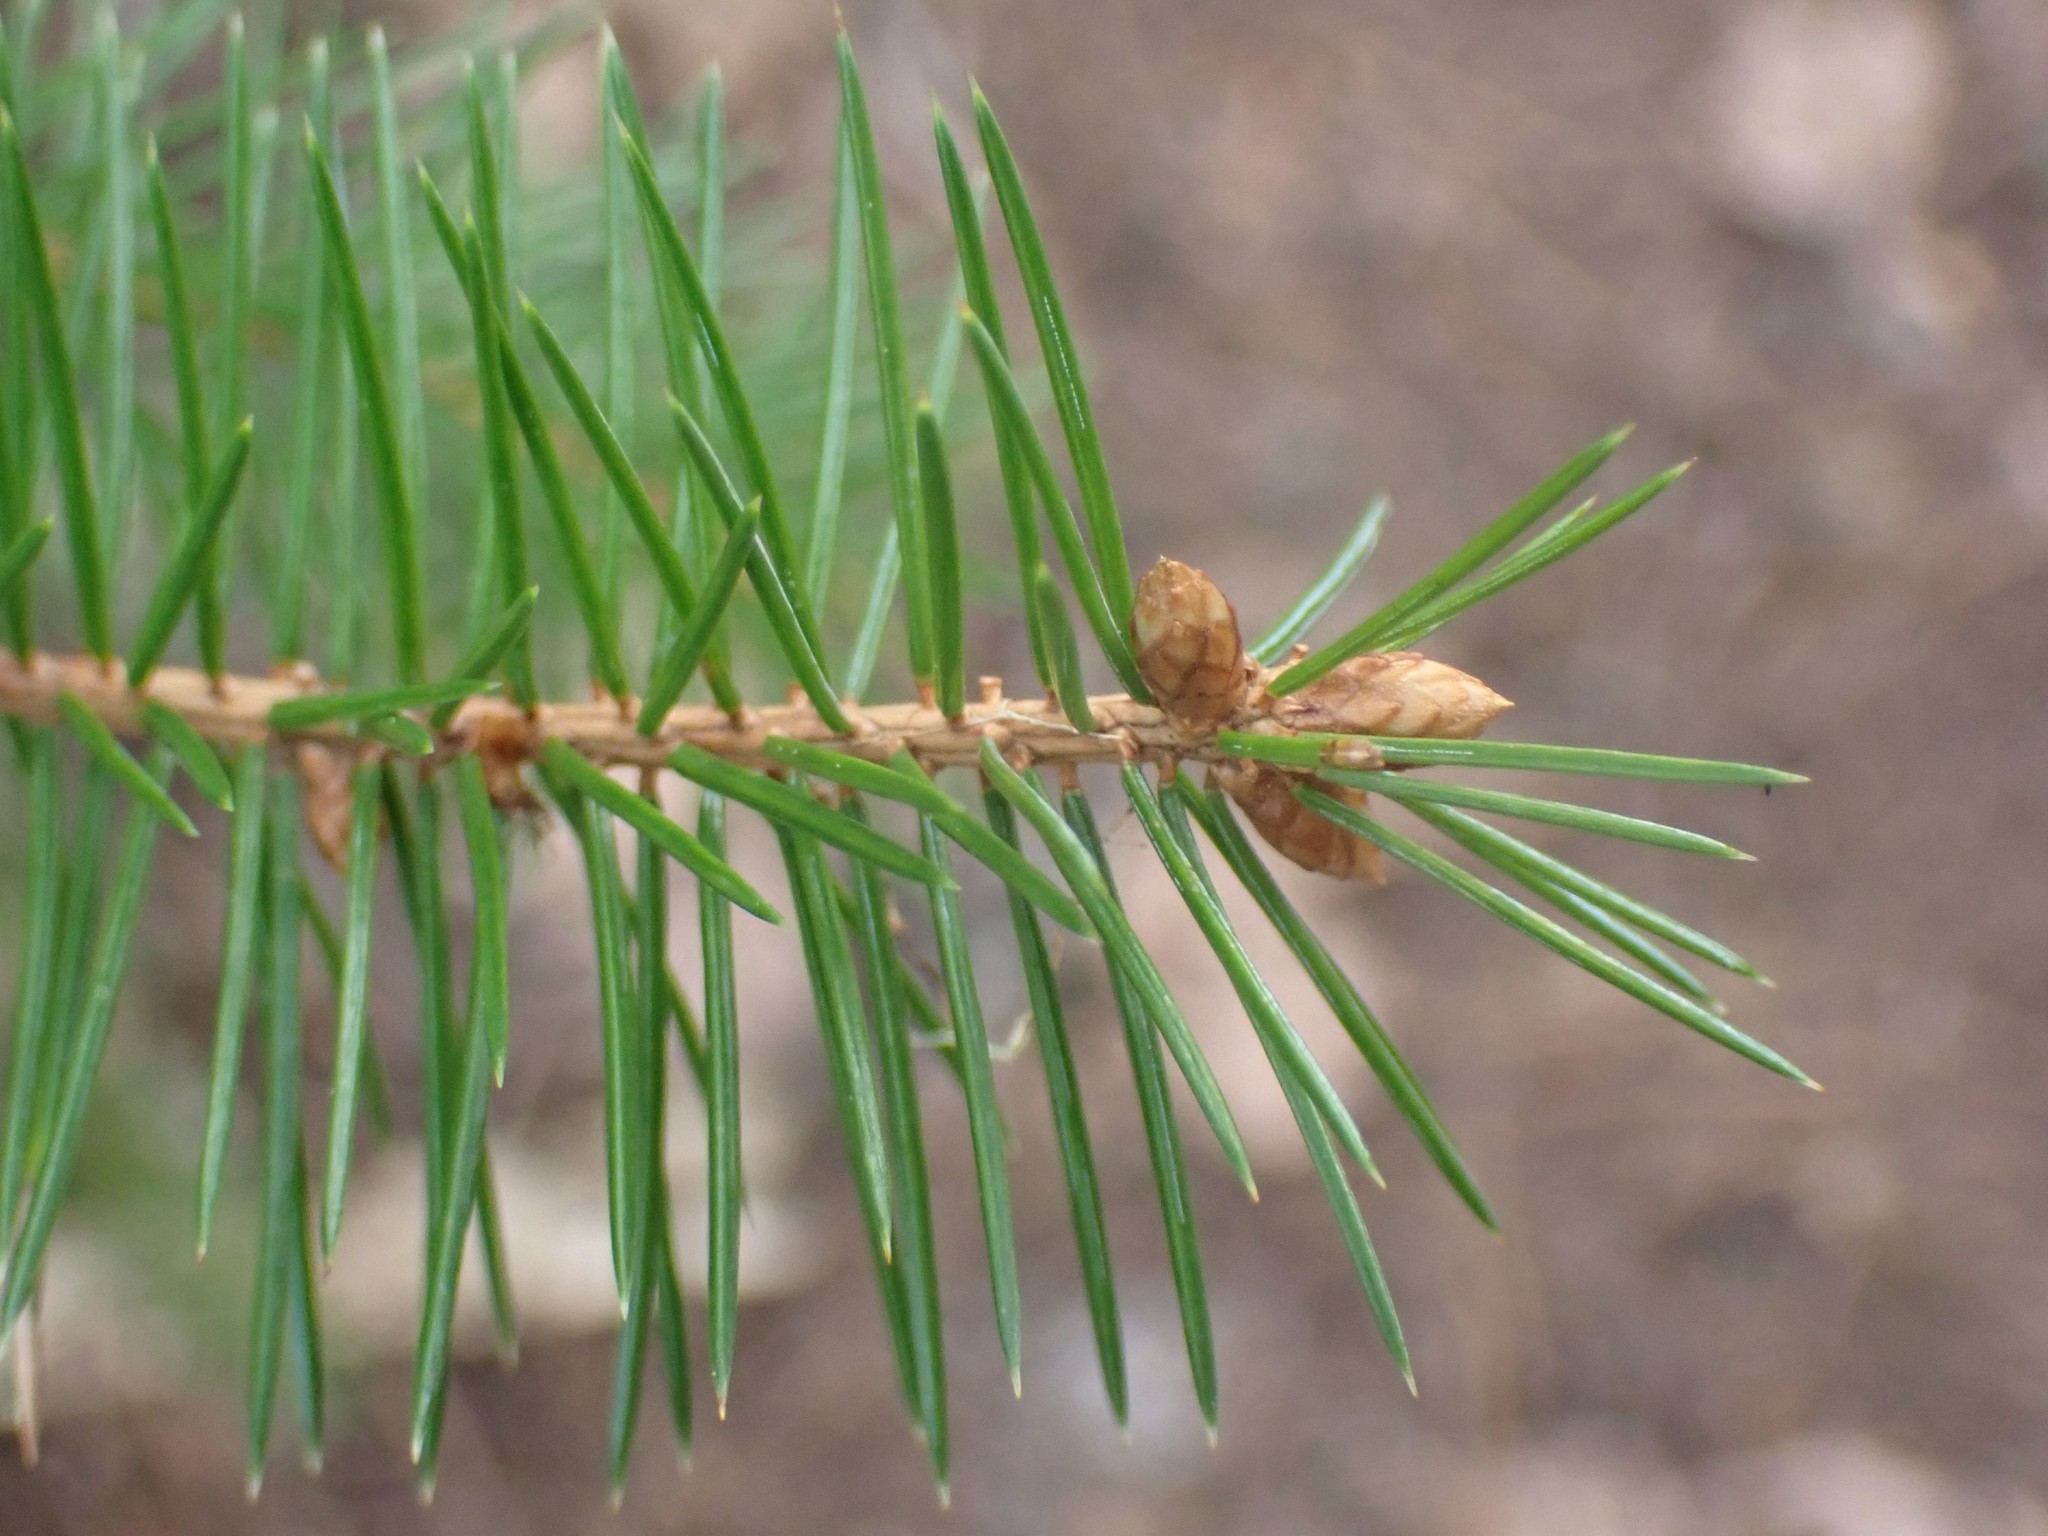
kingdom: Plantae
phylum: Tracheophyta
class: Pinopsida
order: Pinales
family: Pinaceae
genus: Picea
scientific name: Picea sitchensis
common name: Sitka spruce
